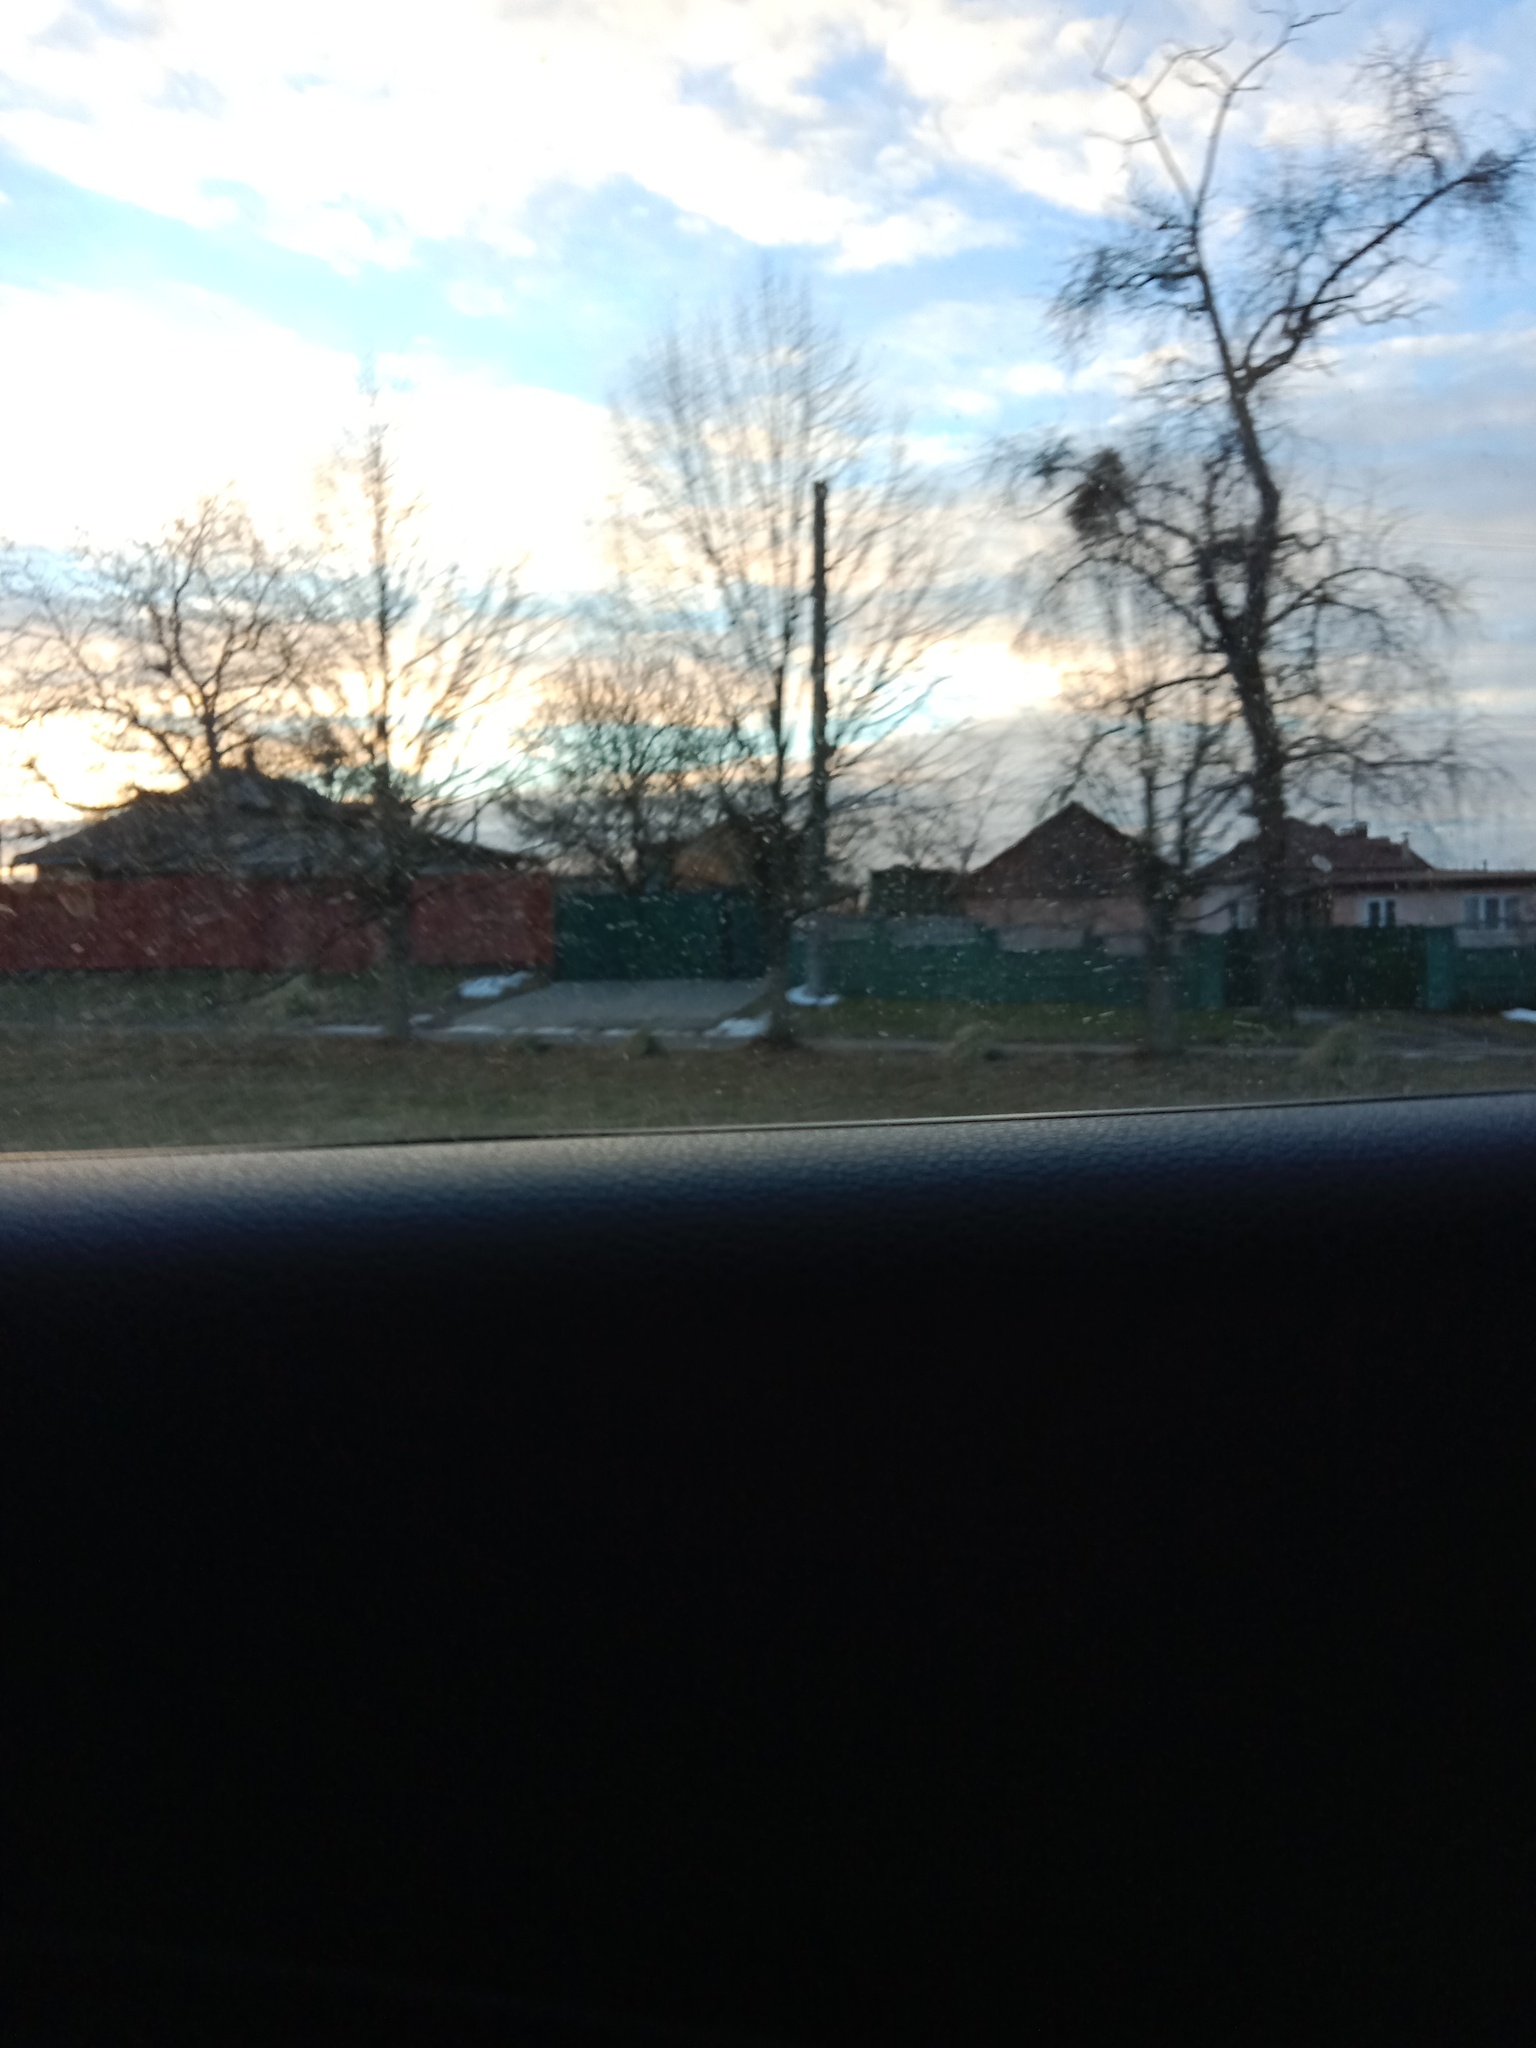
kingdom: Plantae
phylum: Tracheophyta
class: Magnoliopsida
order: Santalales
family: Viscaceae
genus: Viscum
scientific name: Viscum album
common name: Mistletoe
